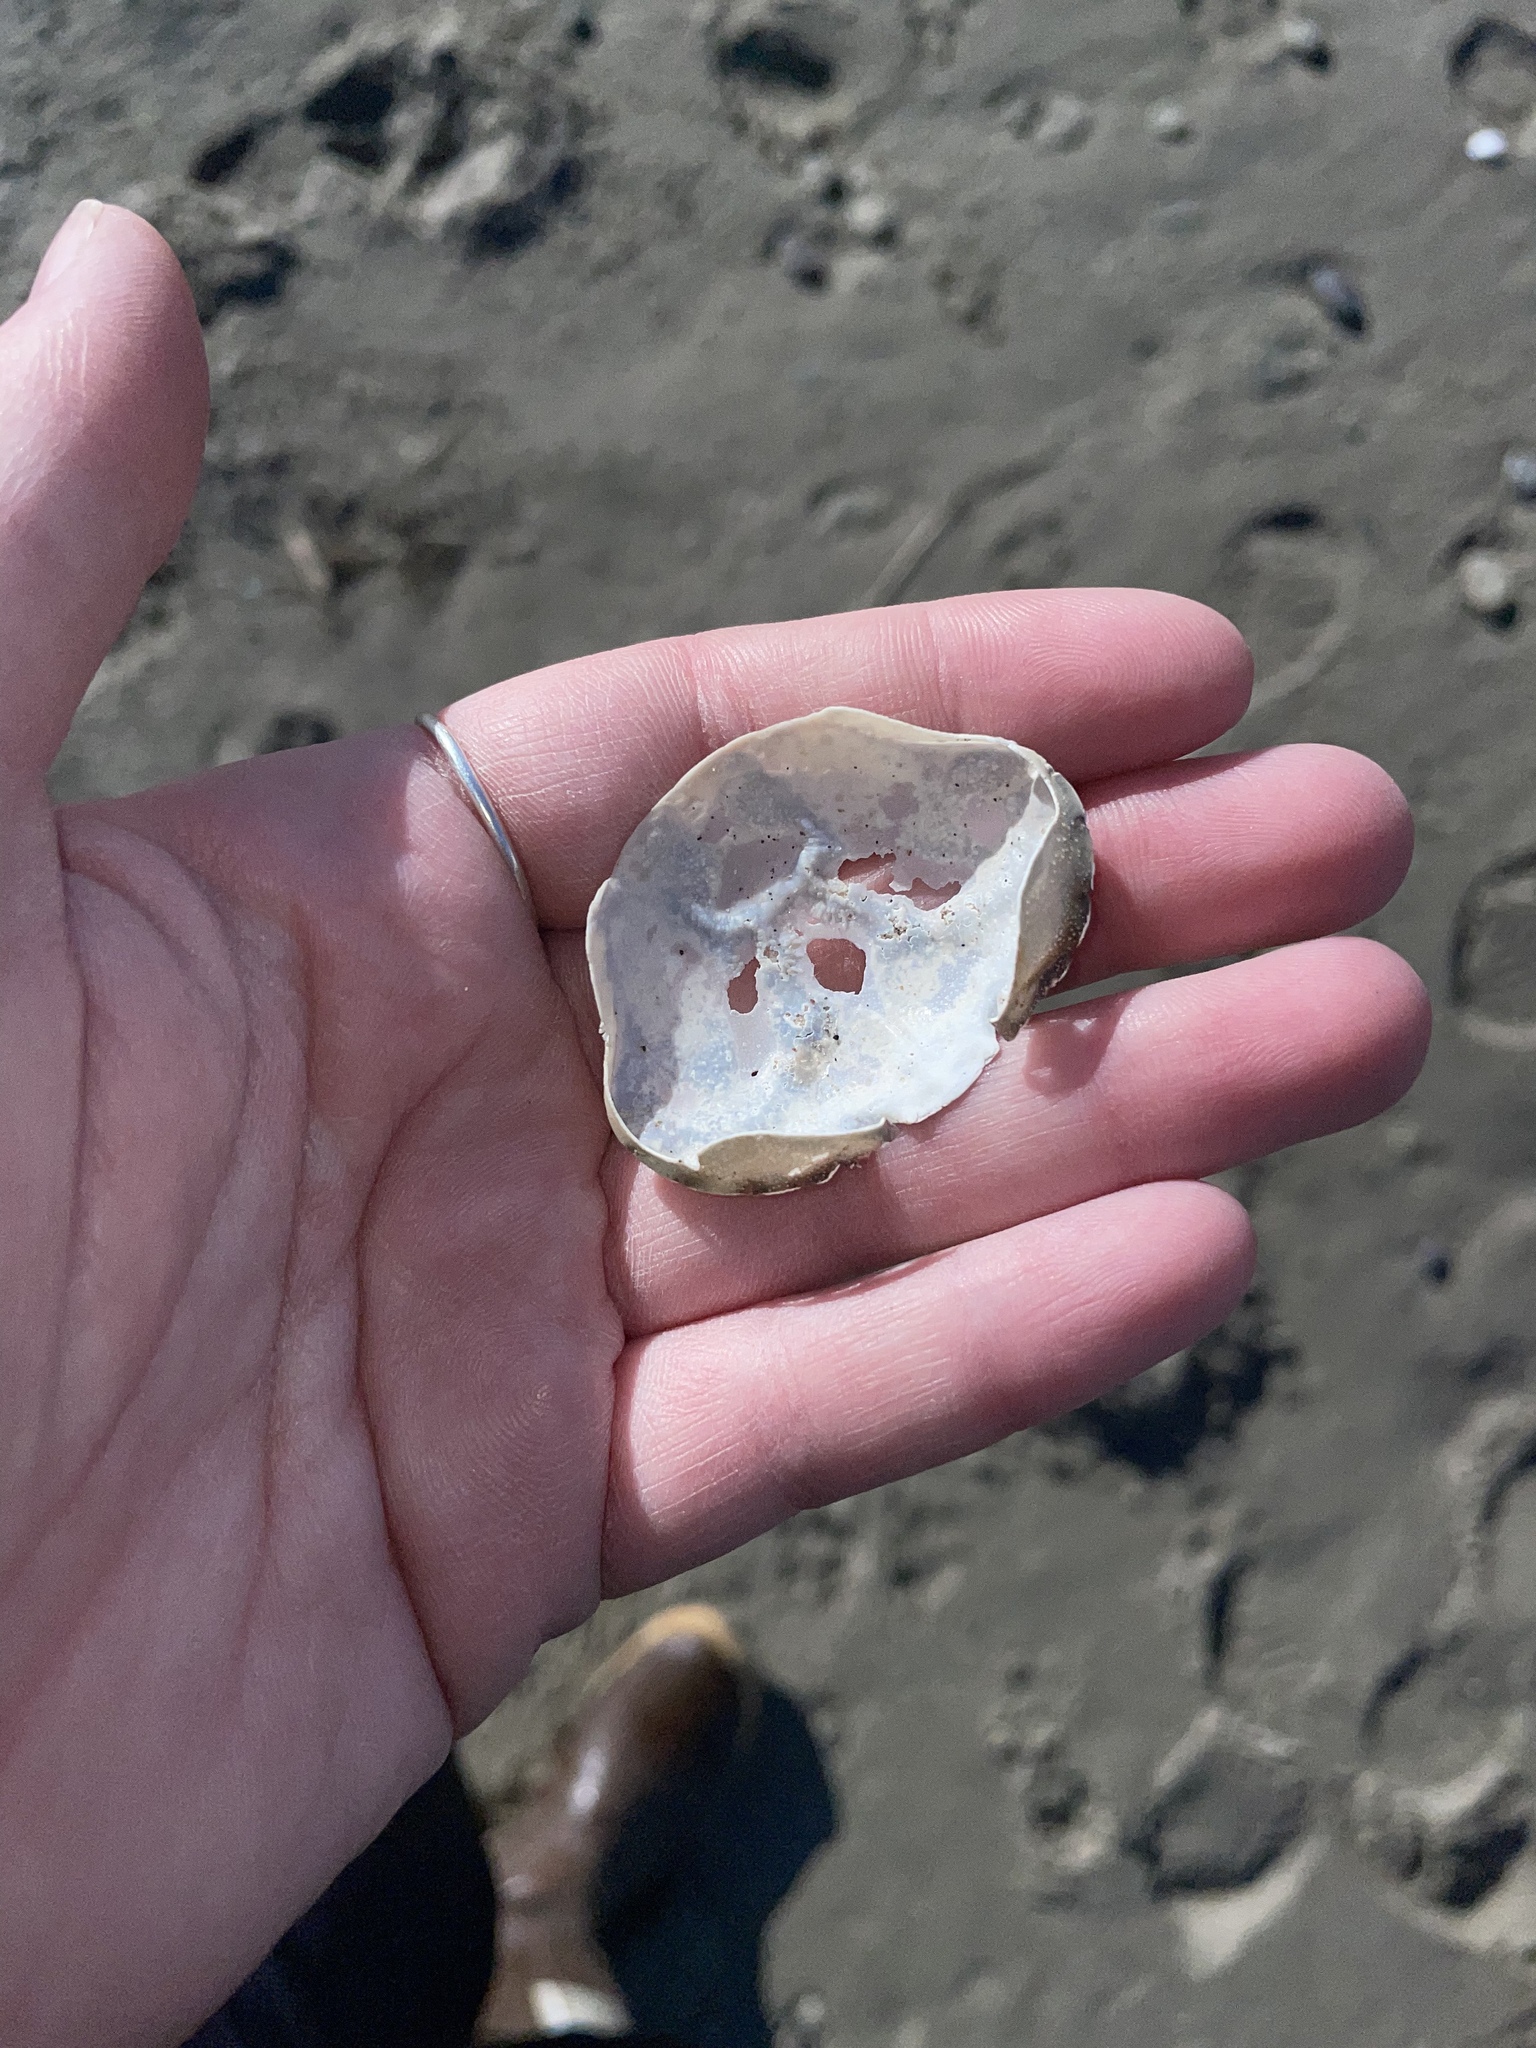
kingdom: Animalia
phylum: Arthropoda
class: Malacostraca
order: Decapoda
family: Carcinidae
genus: Carcinus
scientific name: Carcinus maenas
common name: European green crab
